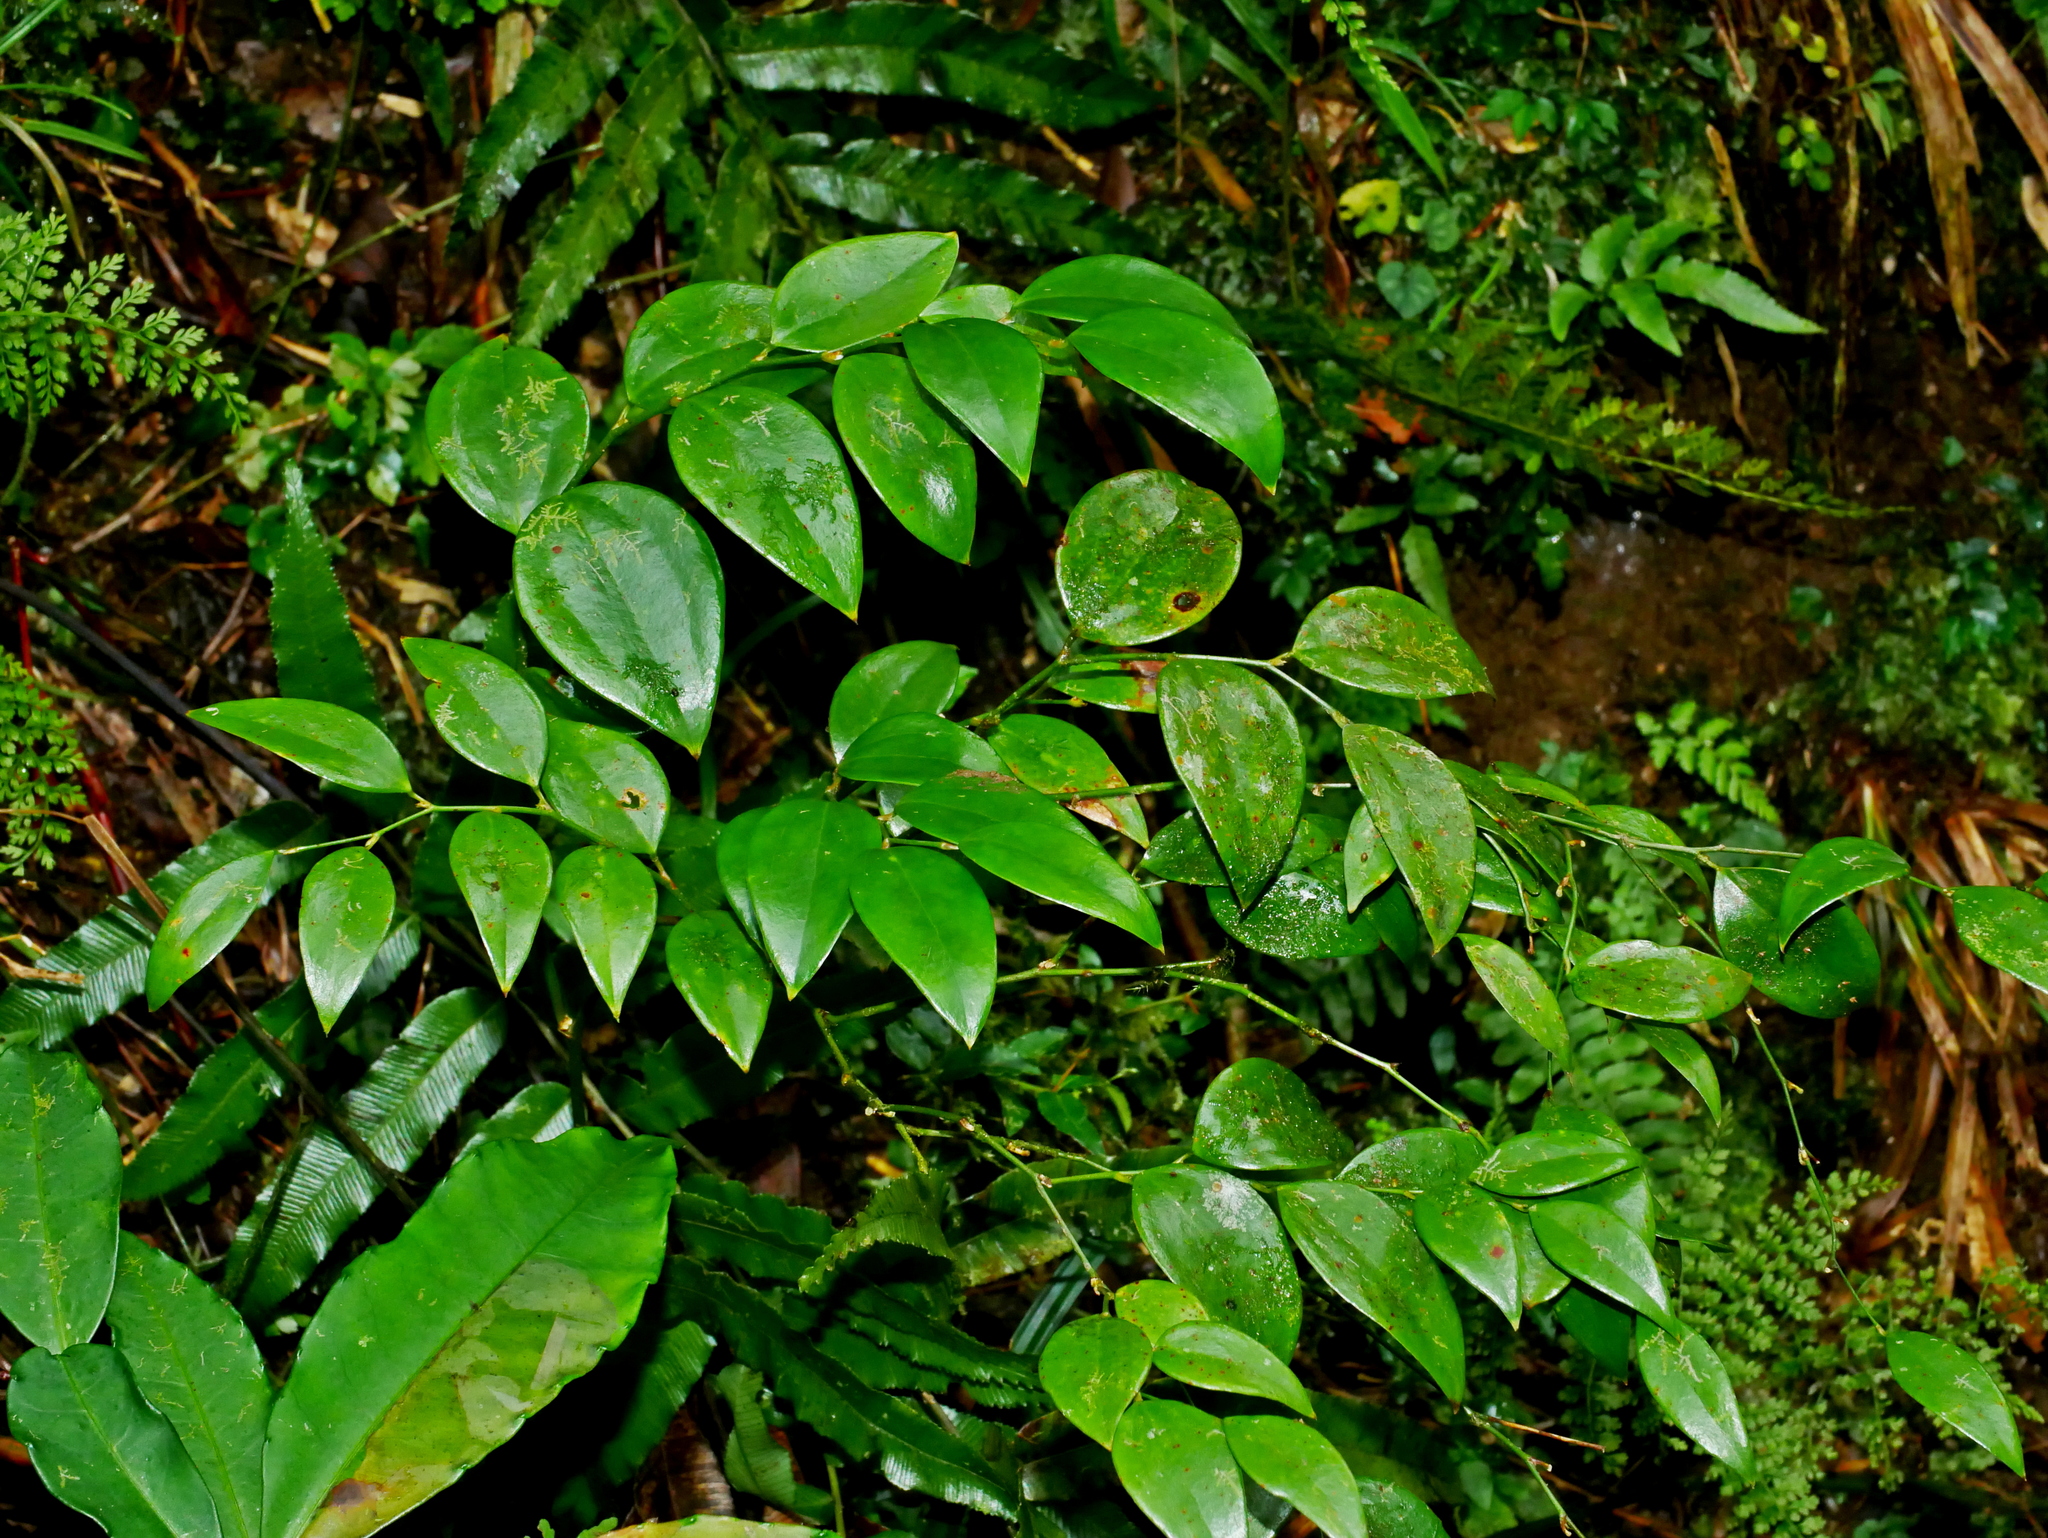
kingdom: Plantae
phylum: Tracheophyta
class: Liliopsida
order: Liliales
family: Smilacaceae
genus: Smilax
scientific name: Smilax hayatae
